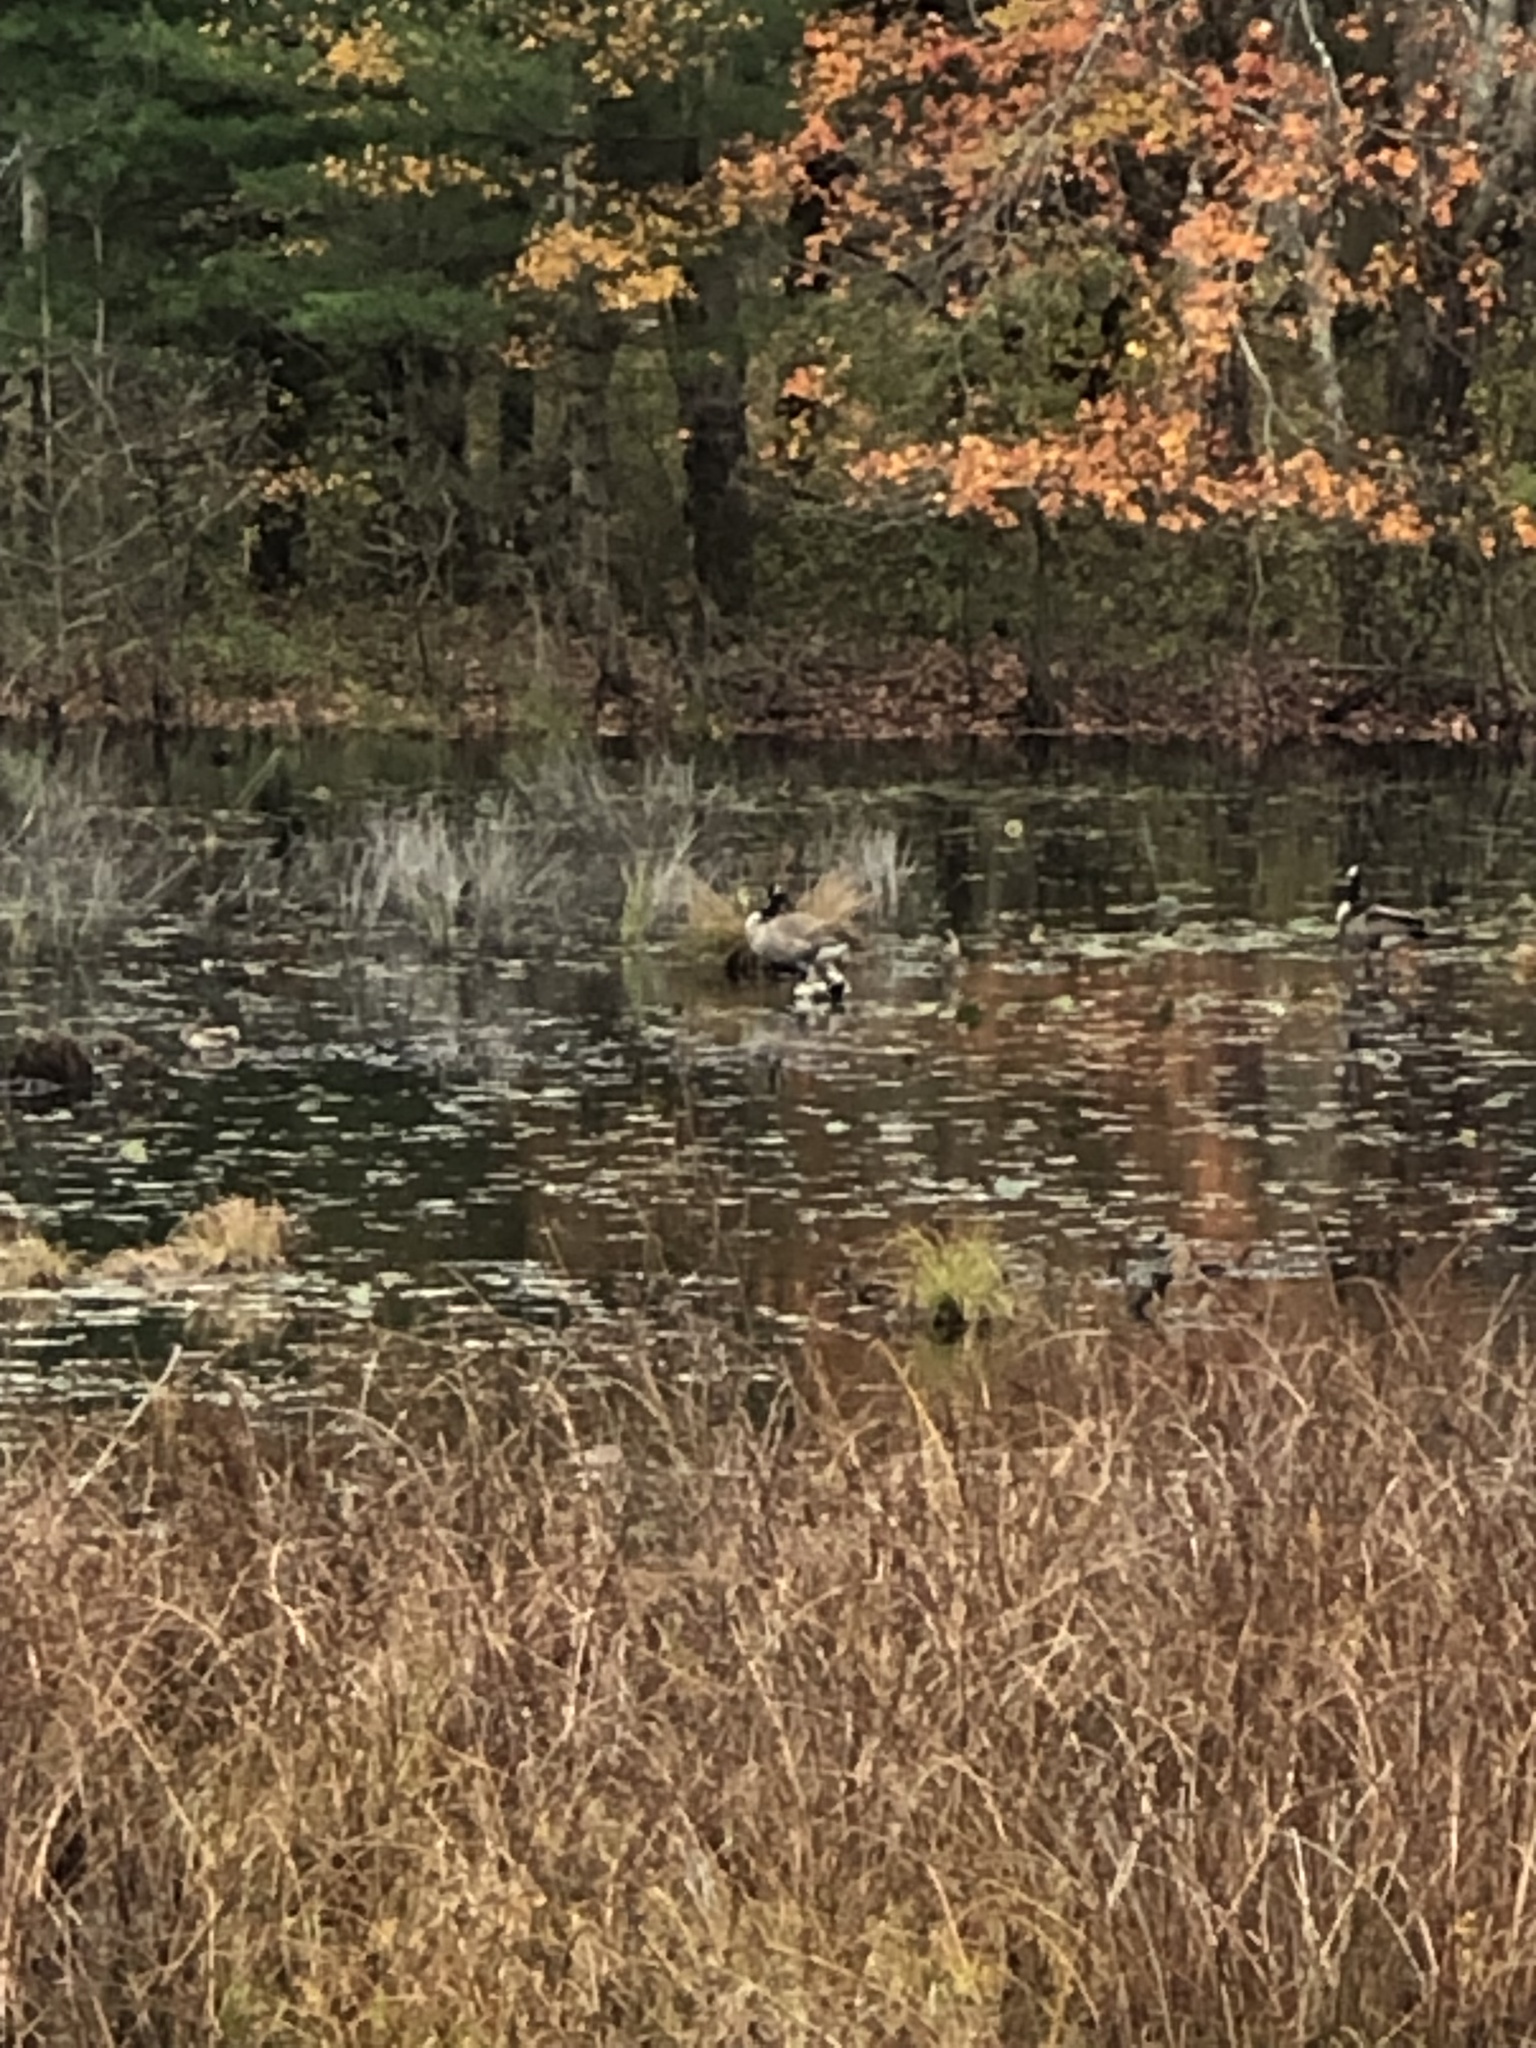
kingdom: Animalia
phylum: Chordata
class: Aves
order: Anseriformes
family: Anatidae
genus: Branta
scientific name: Branta canadensis
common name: Canada goose
